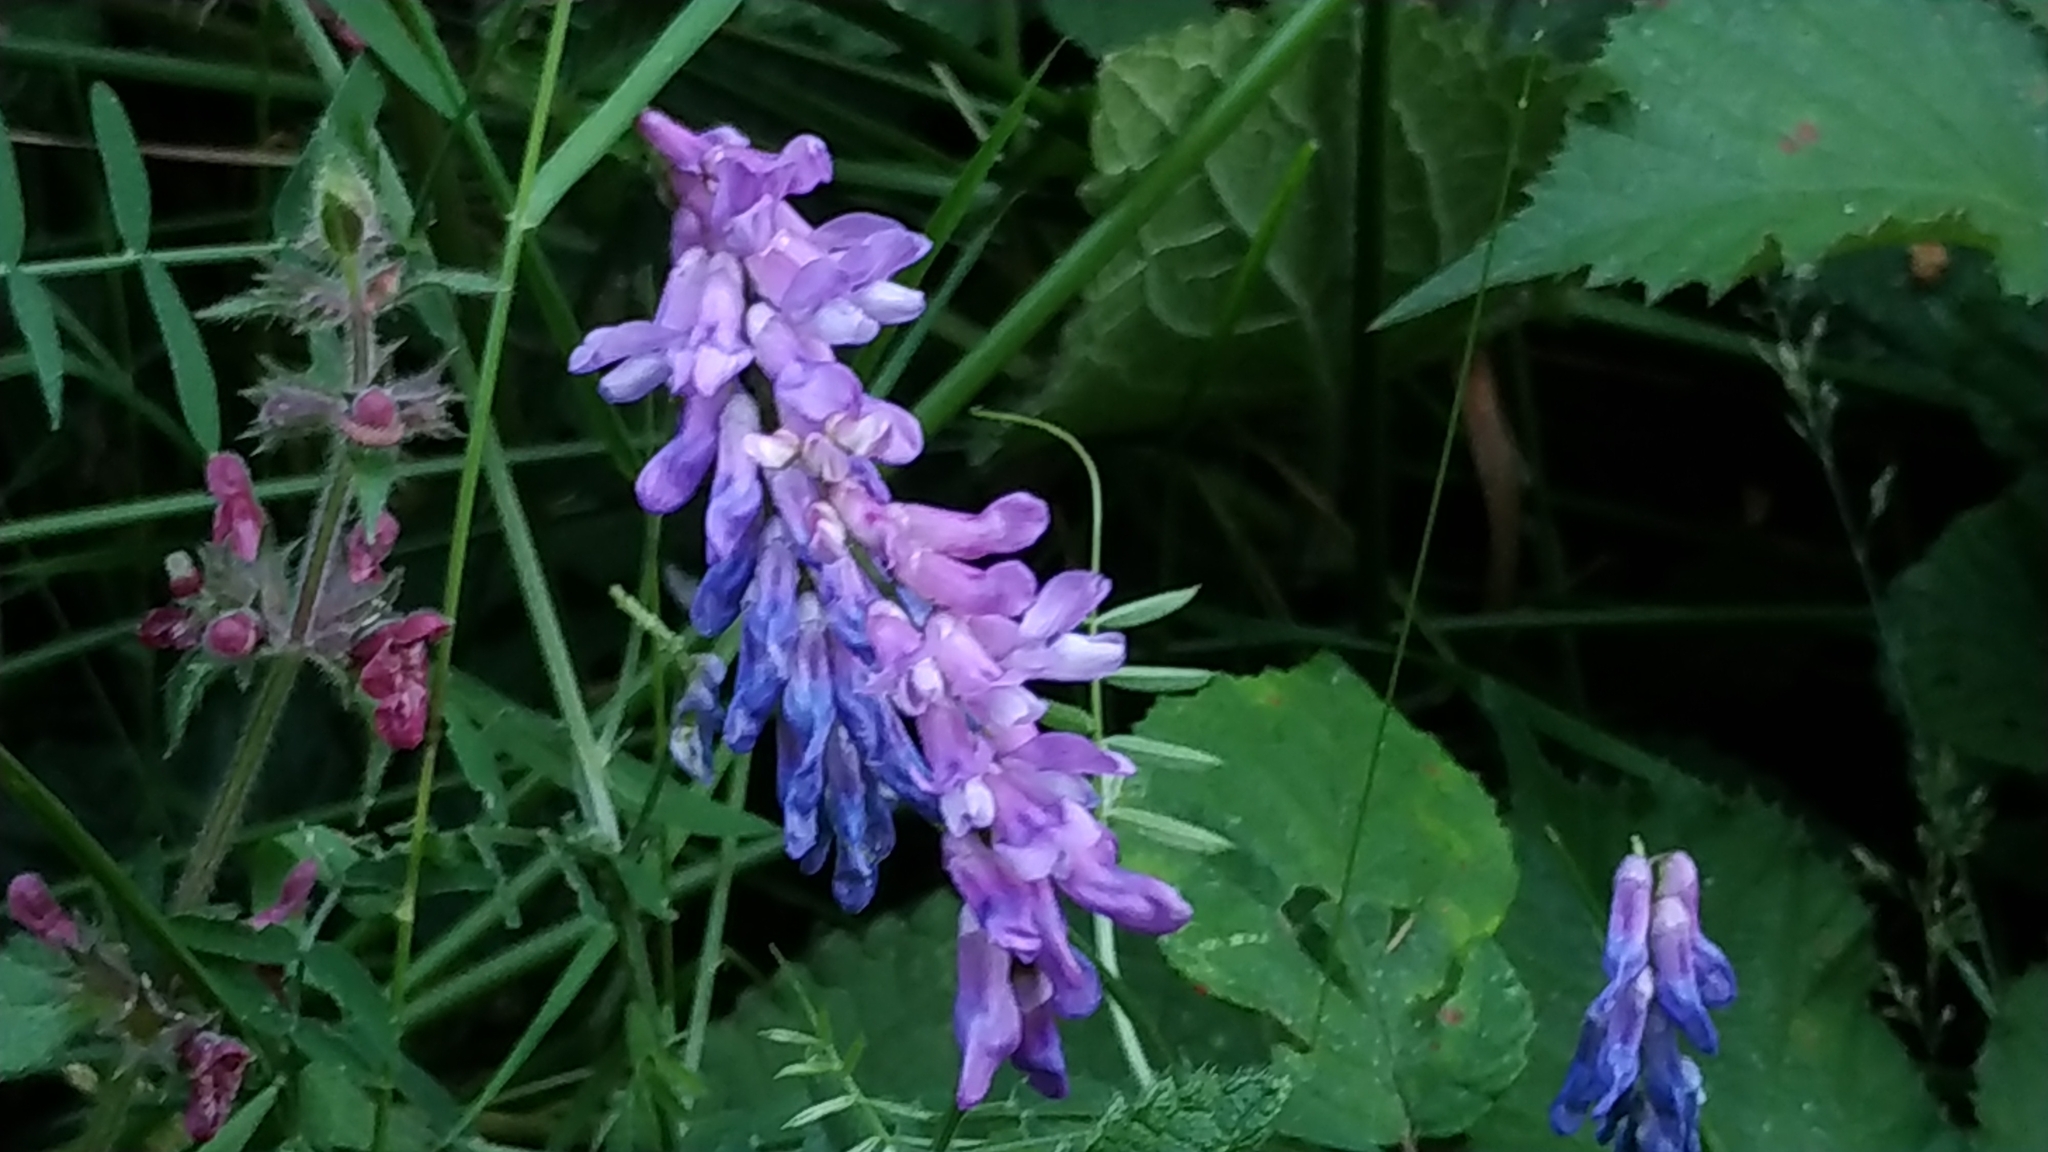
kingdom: Plantae
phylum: Tracheophyta
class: Magnoliopsida
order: Fabales
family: Fabaceae
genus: Vicia
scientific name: Vicia cracca
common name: Bird vetch
